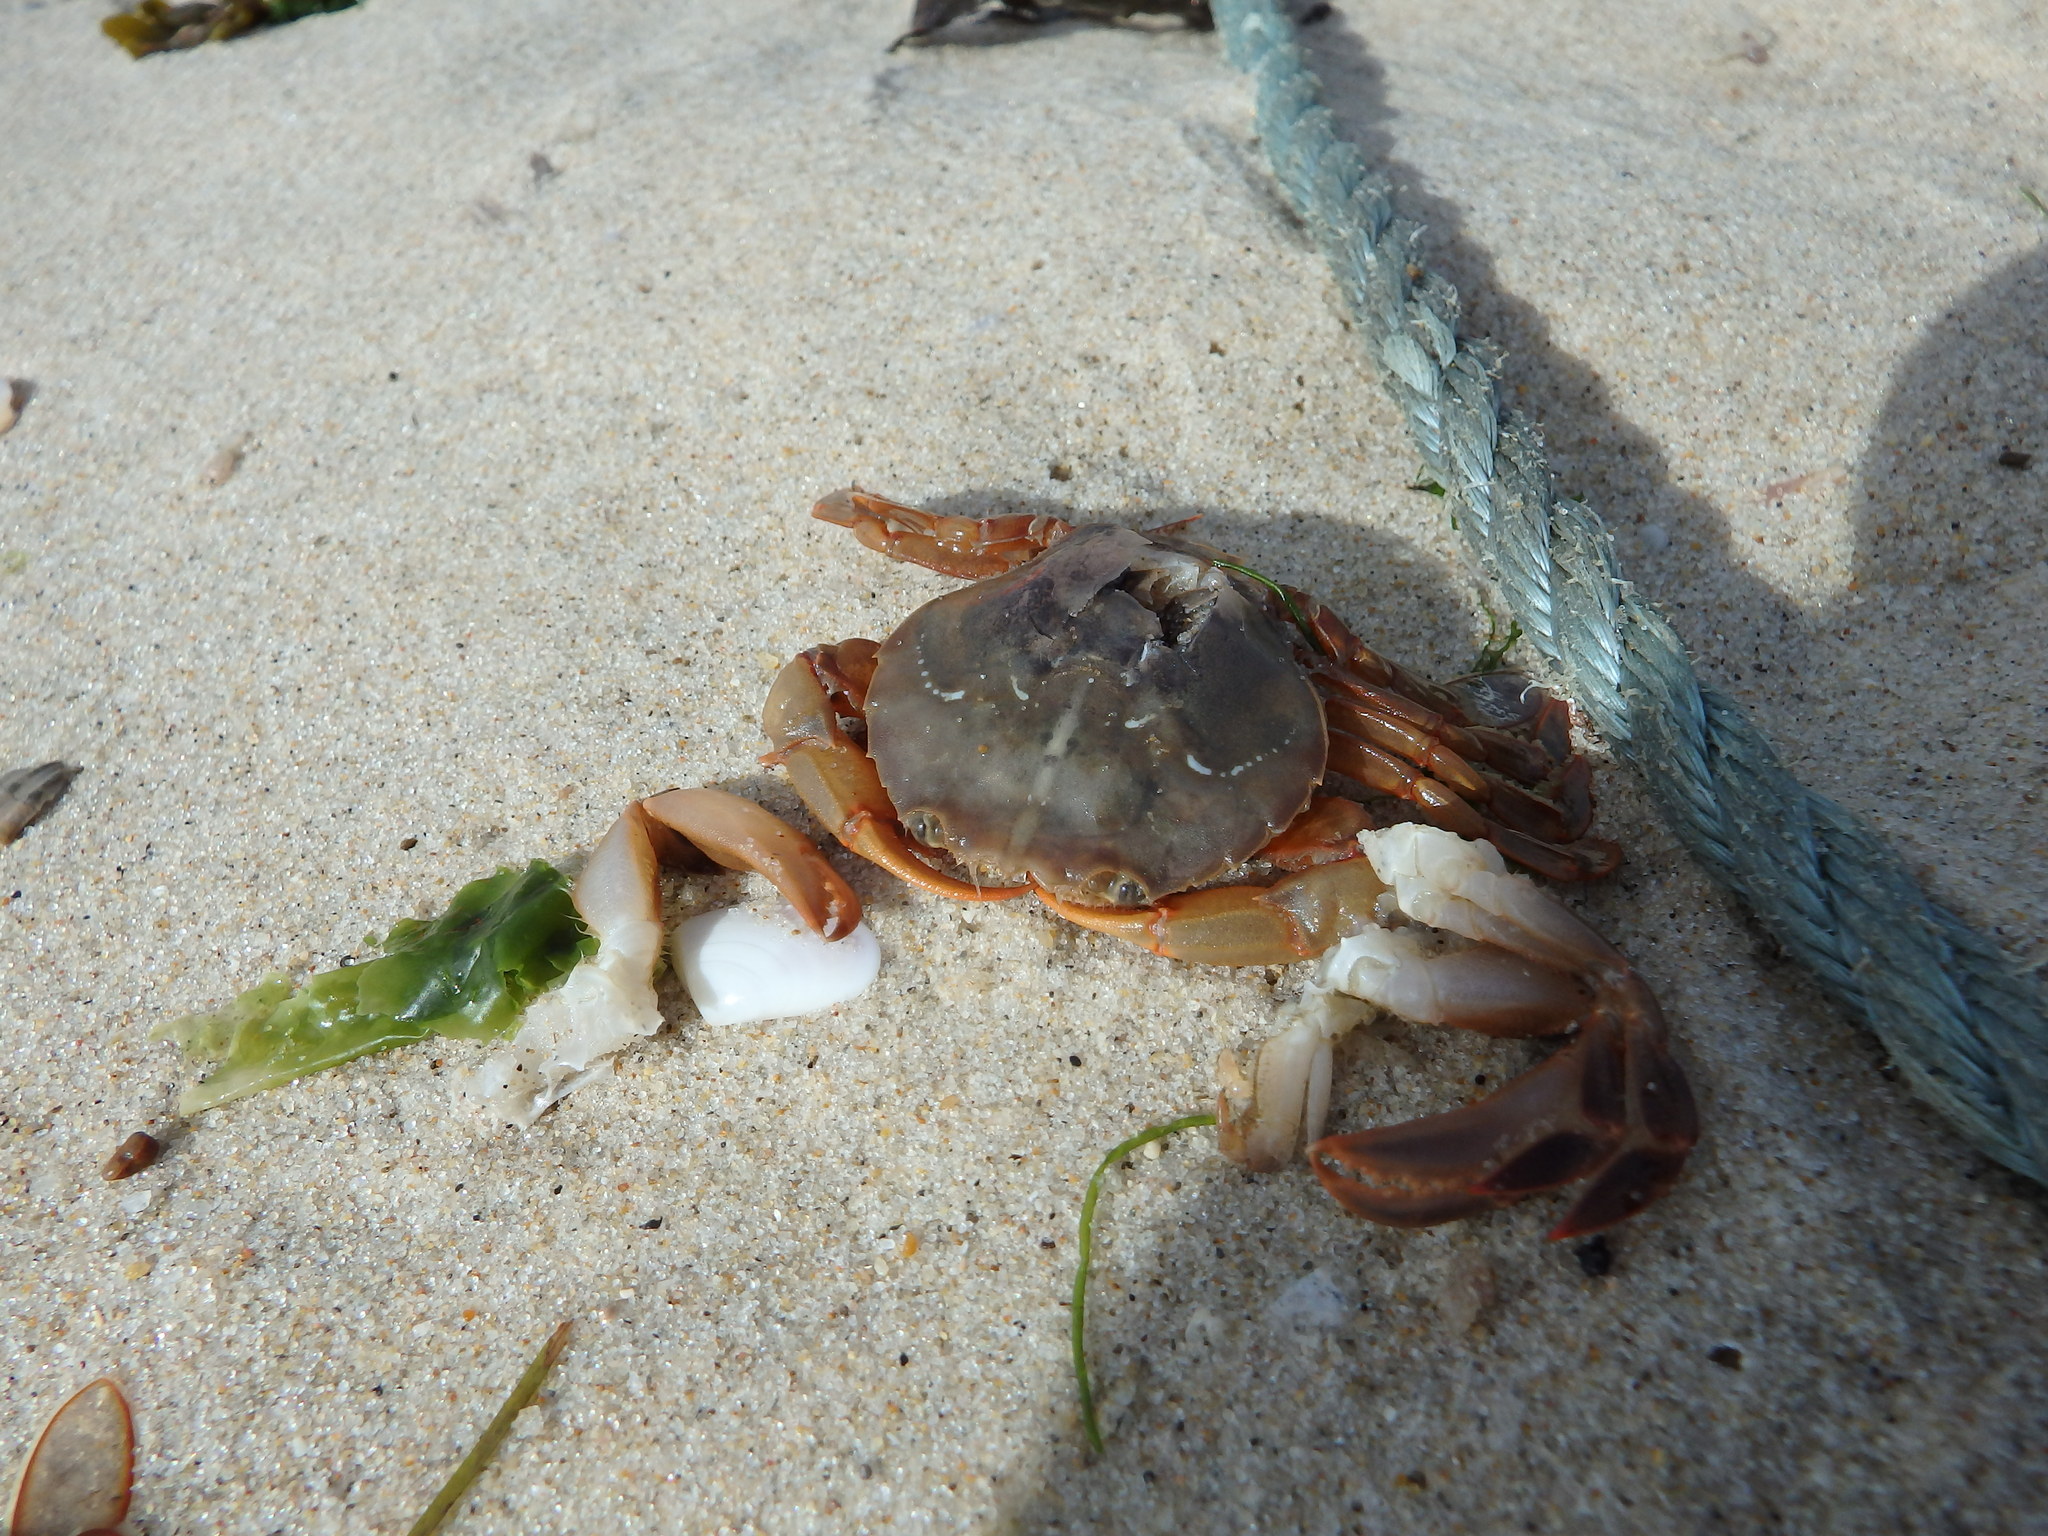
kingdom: Animalia
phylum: Arthropoda
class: Malacostraca
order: Decapoda
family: Polybiidae
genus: Polybius
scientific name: Polybius henslowii
